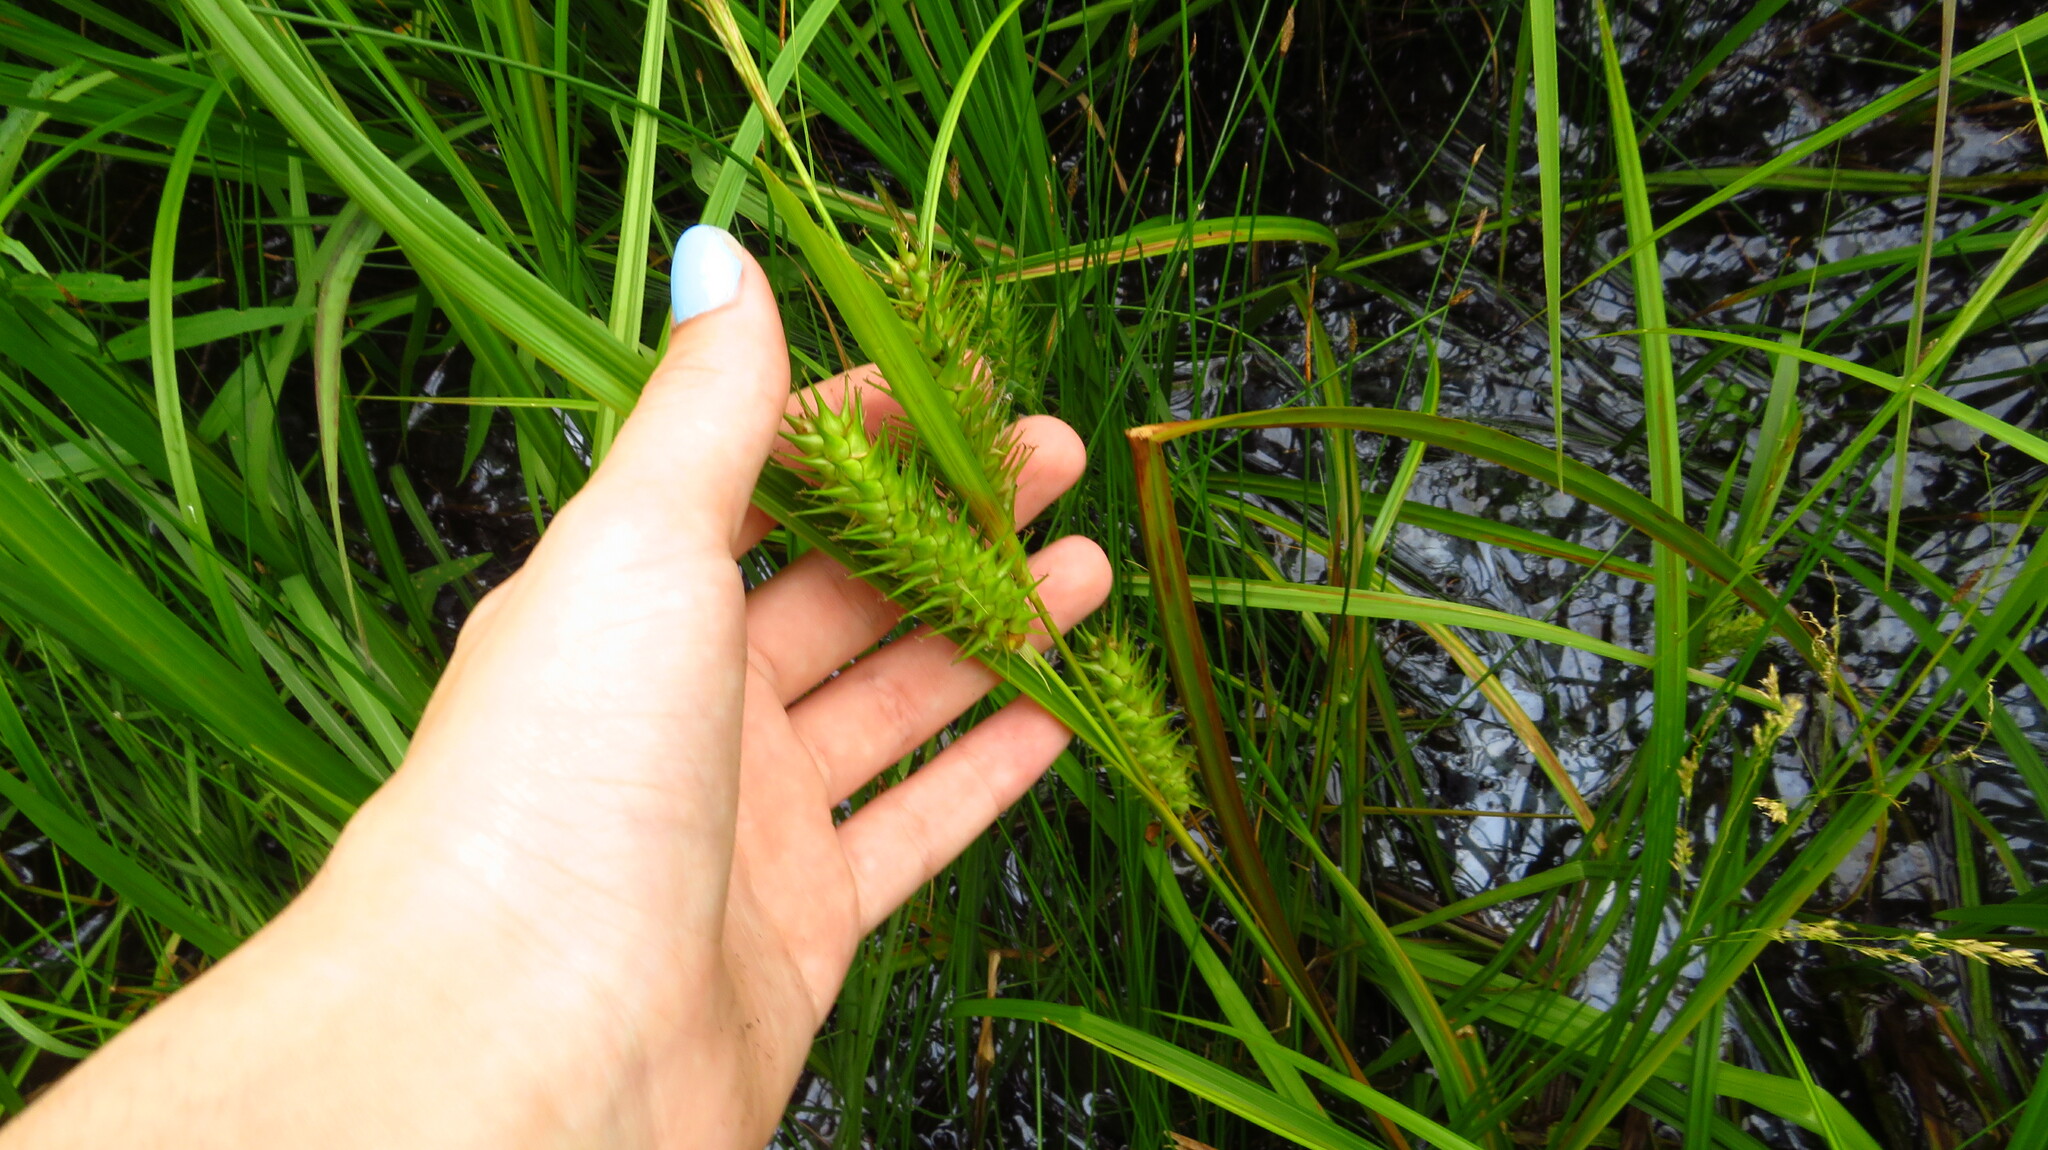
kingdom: Plantae
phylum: Tracheophyta
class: Liliopsida
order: Poales
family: Cyperaceae
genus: Carex
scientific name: Carex lupulina
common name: Hop sedge
